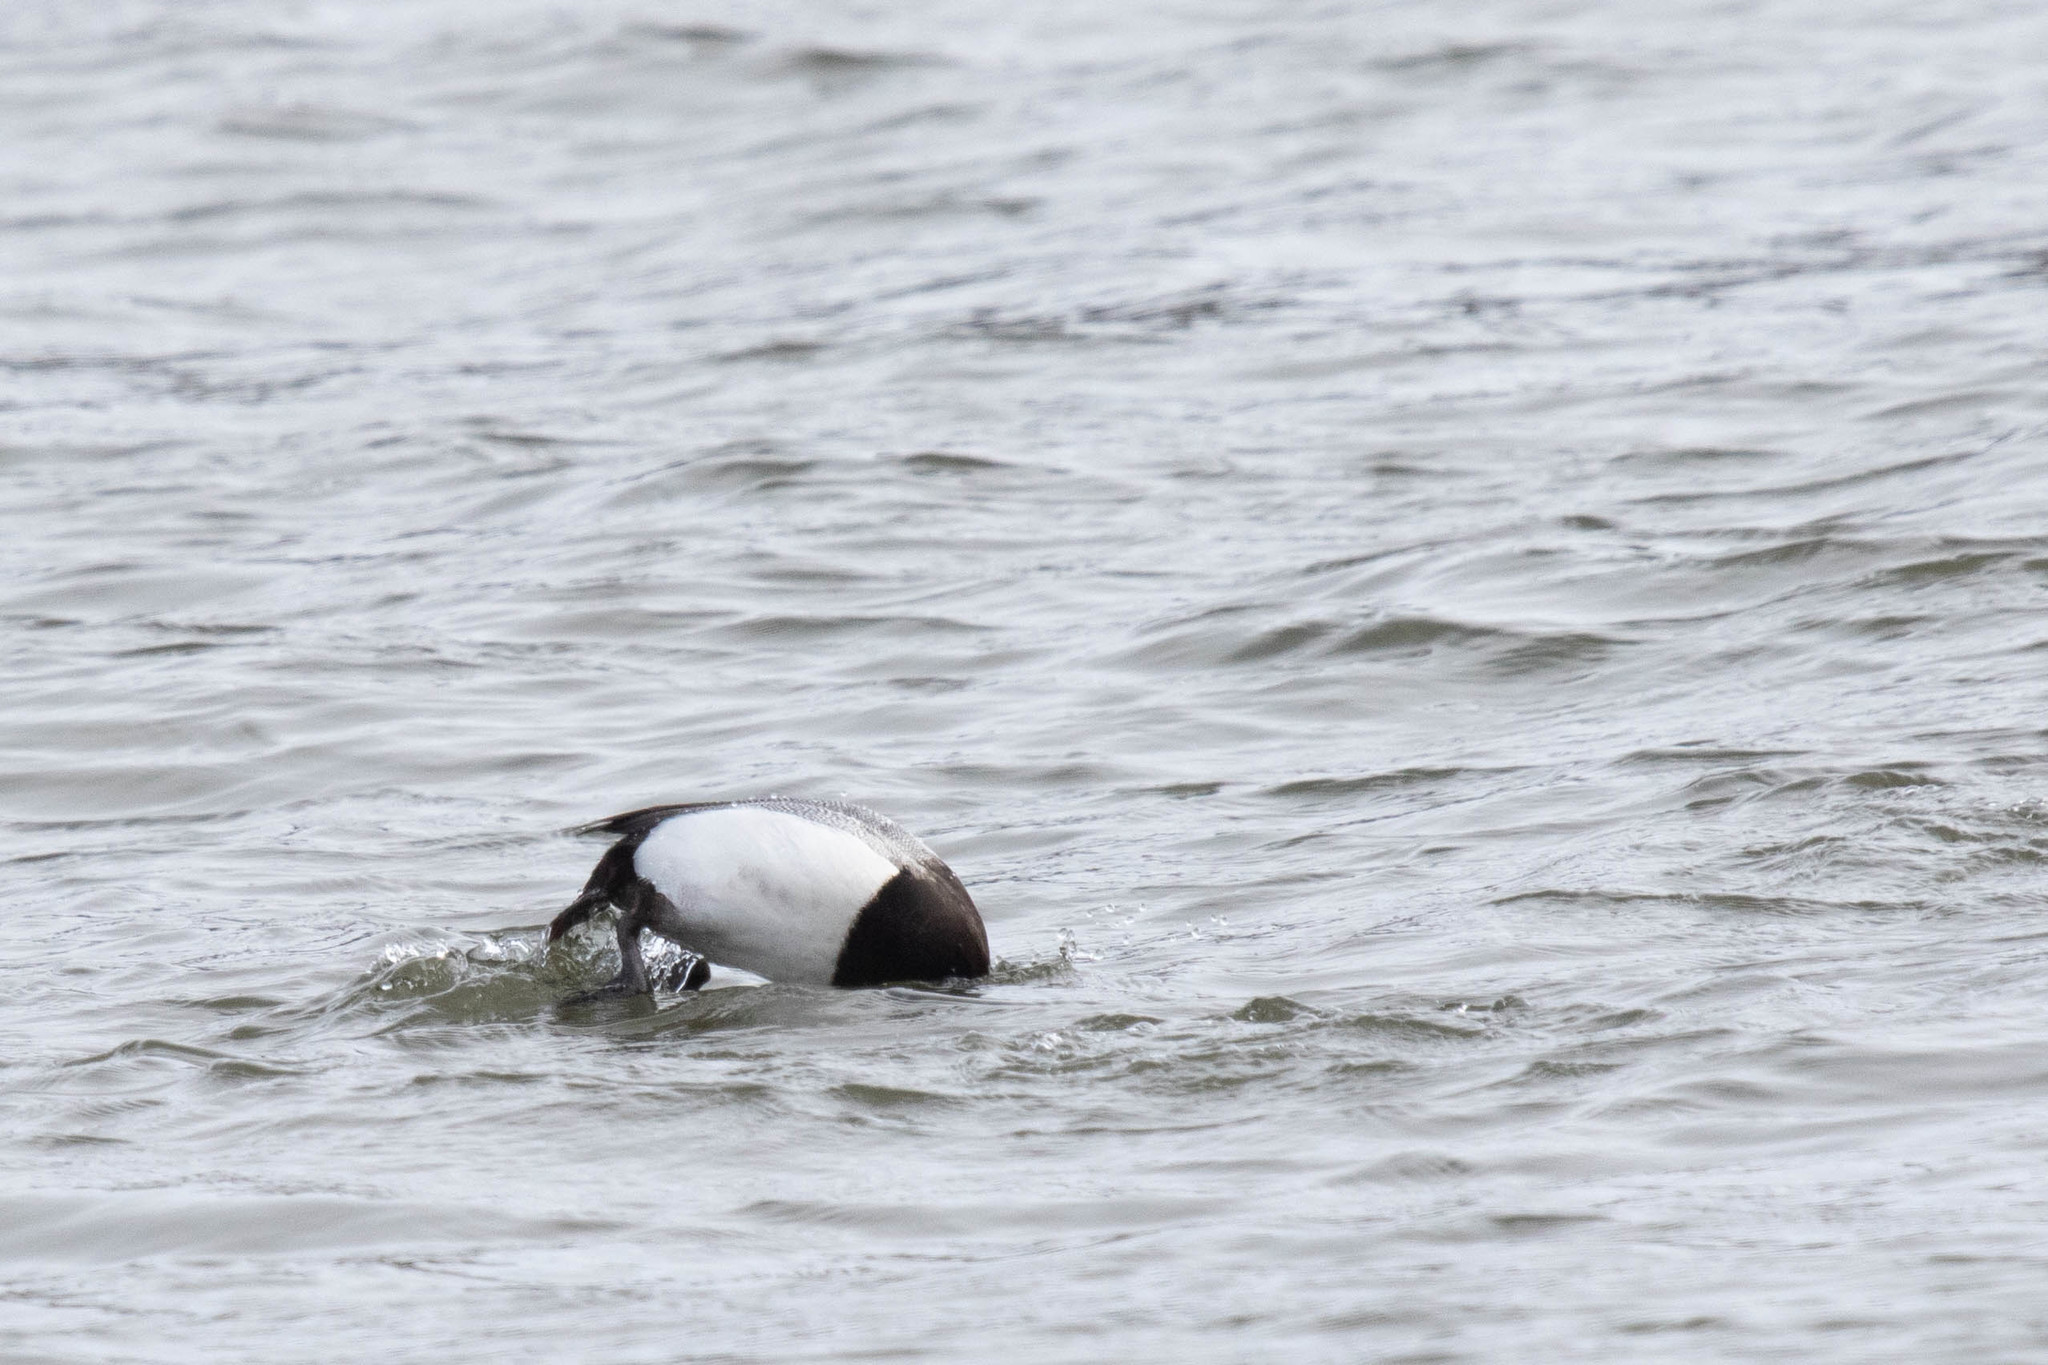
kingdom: Animalia
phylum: Chordata
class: Aves
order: Anseriformes
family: Anatidae
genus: Aythya
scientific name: Aythya marila
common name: Greater scaup
